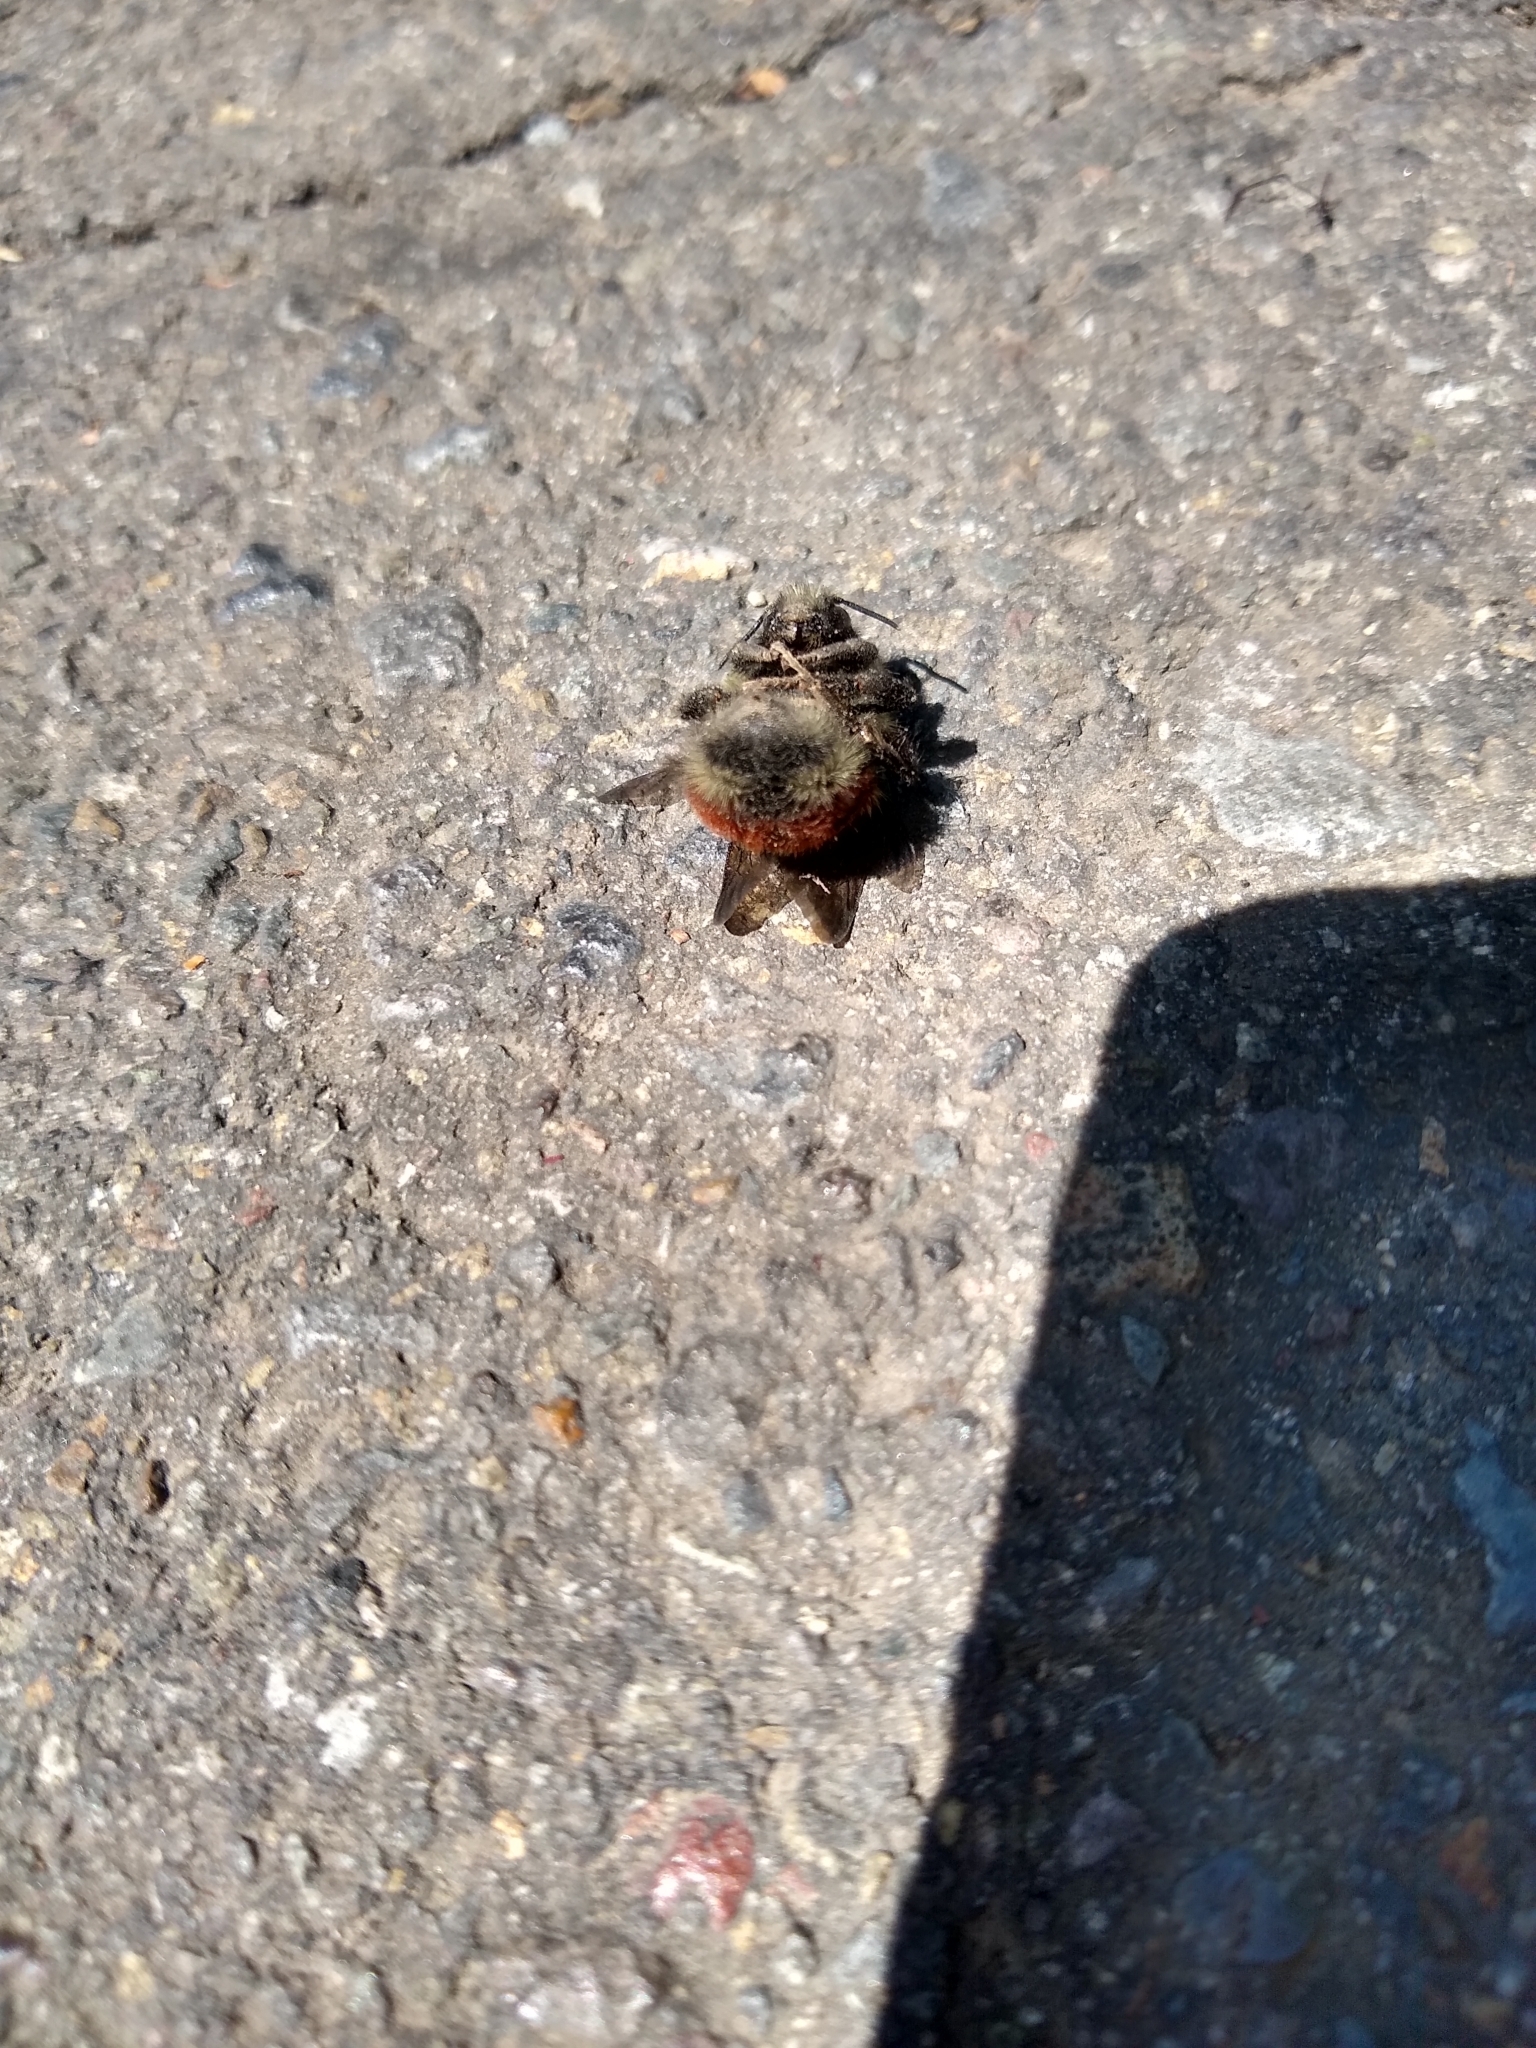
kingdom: Animalia
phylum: Arthropoda
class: Insecta
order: Hymenoptera
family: Apidae
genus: Bombus
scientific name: Bombus melanopygus
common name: Black tail bumble bee
